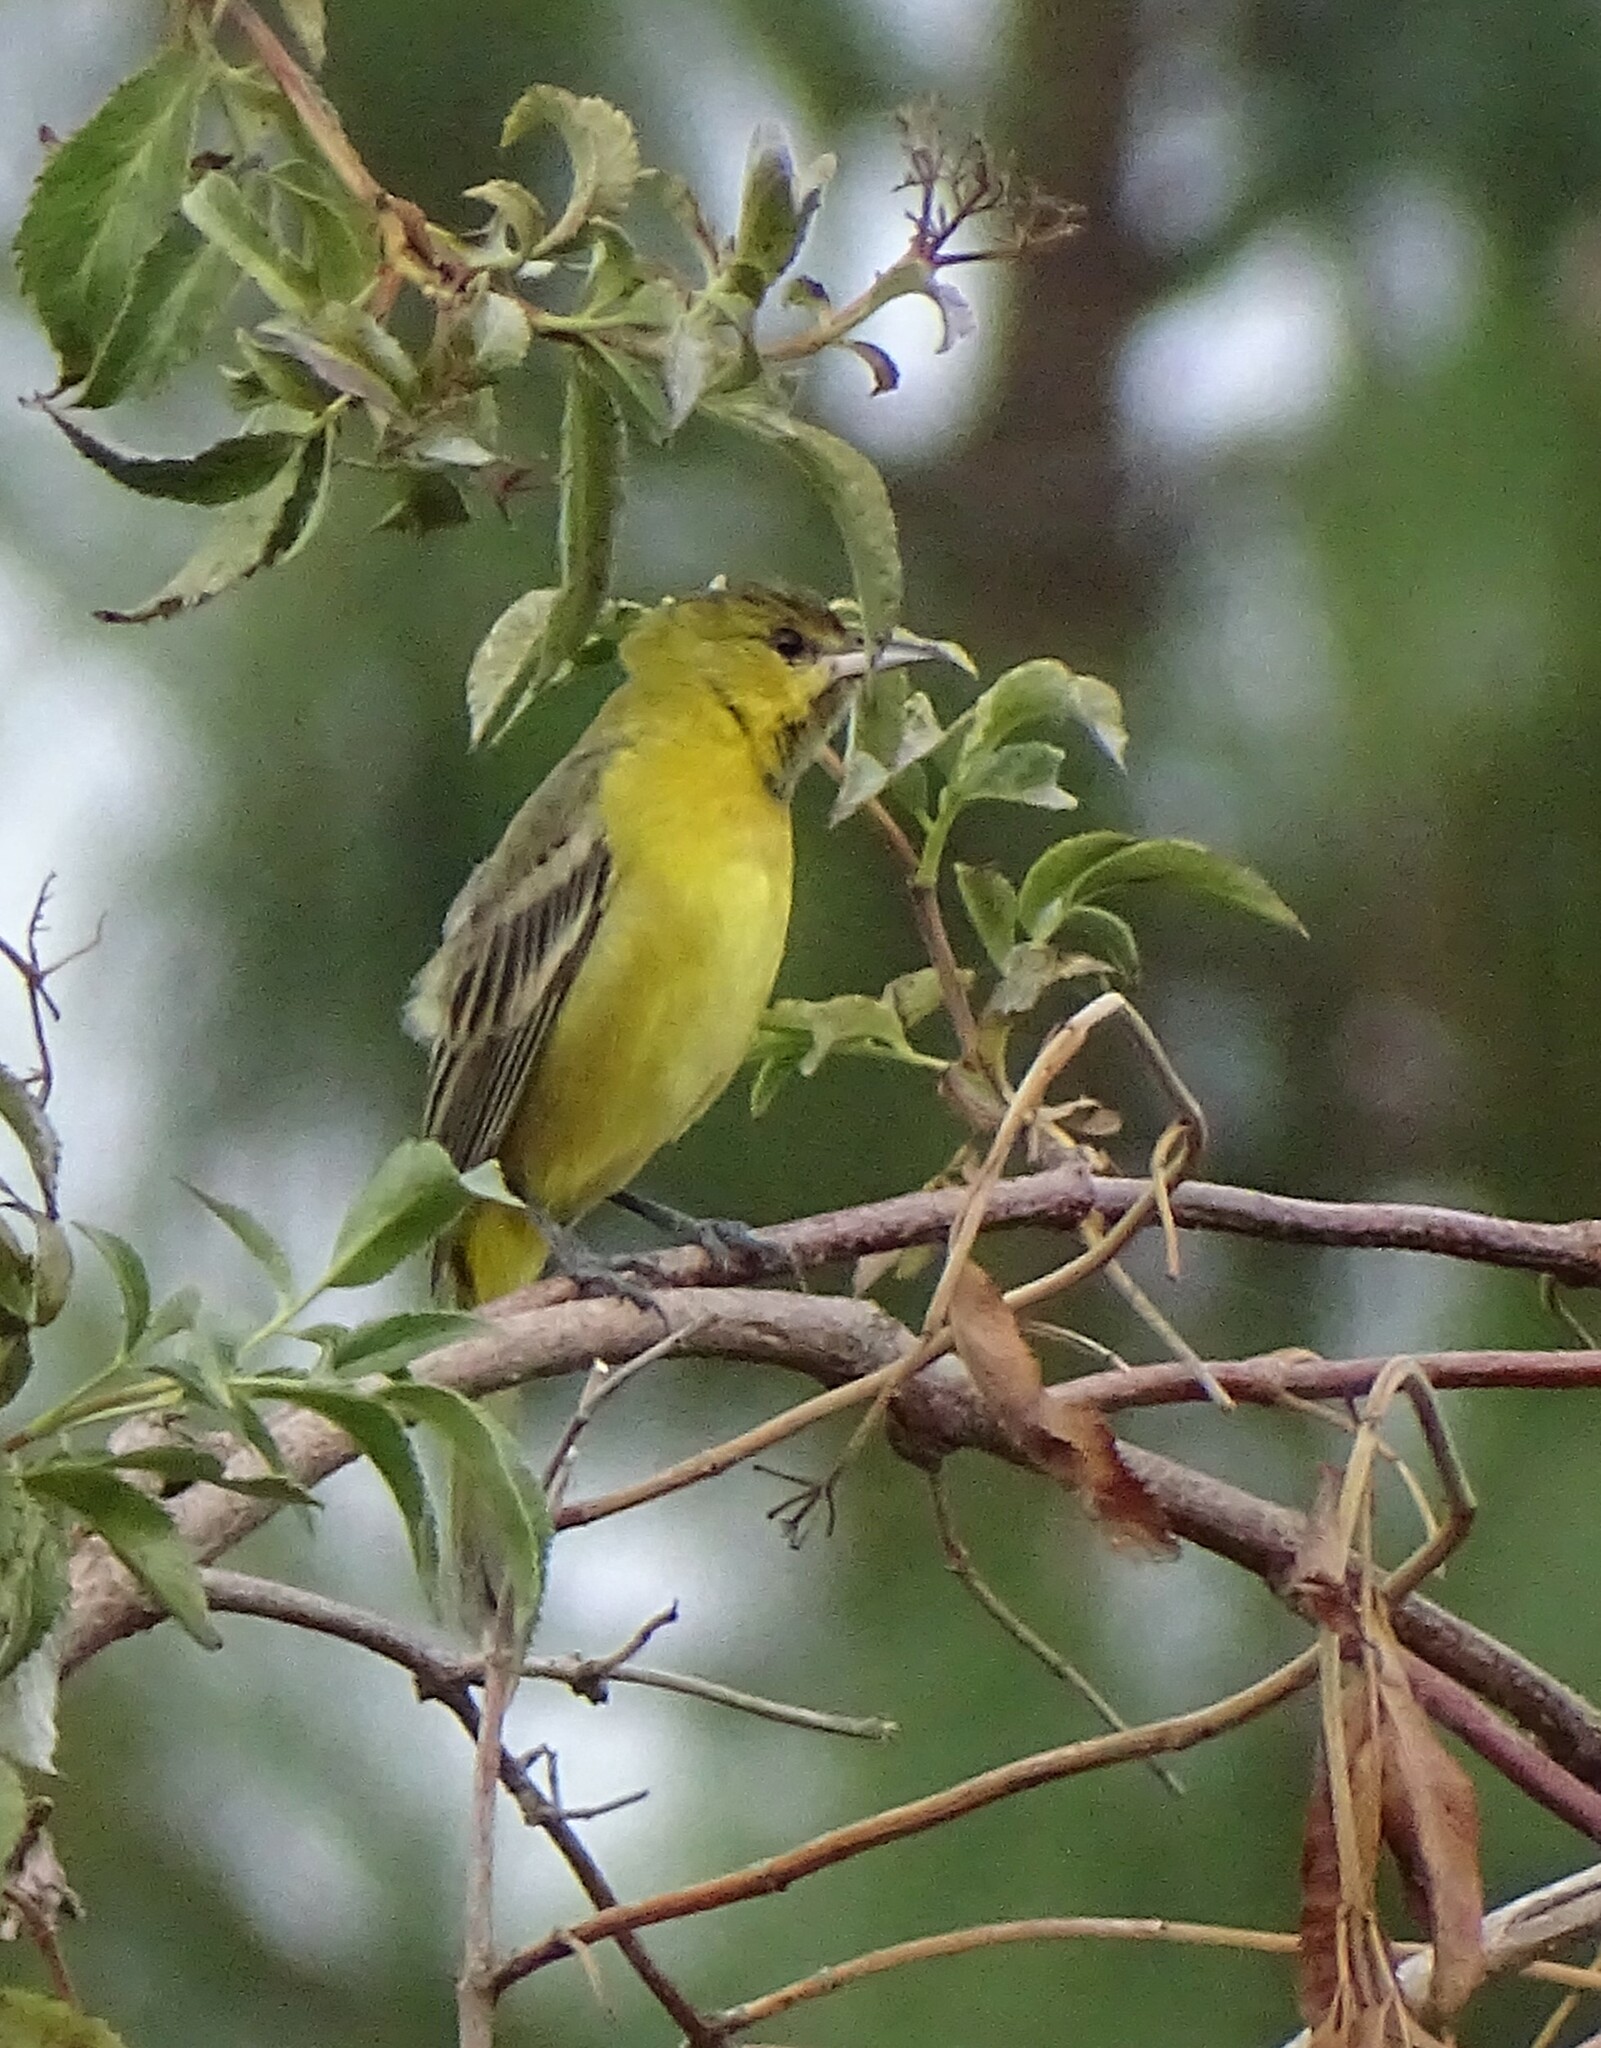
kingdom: Animalia
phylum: Chordata
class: Aves
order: Passeriformes
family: Icteridae
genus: Icterus
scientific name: Icterus spurius
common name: Orchard oriole
